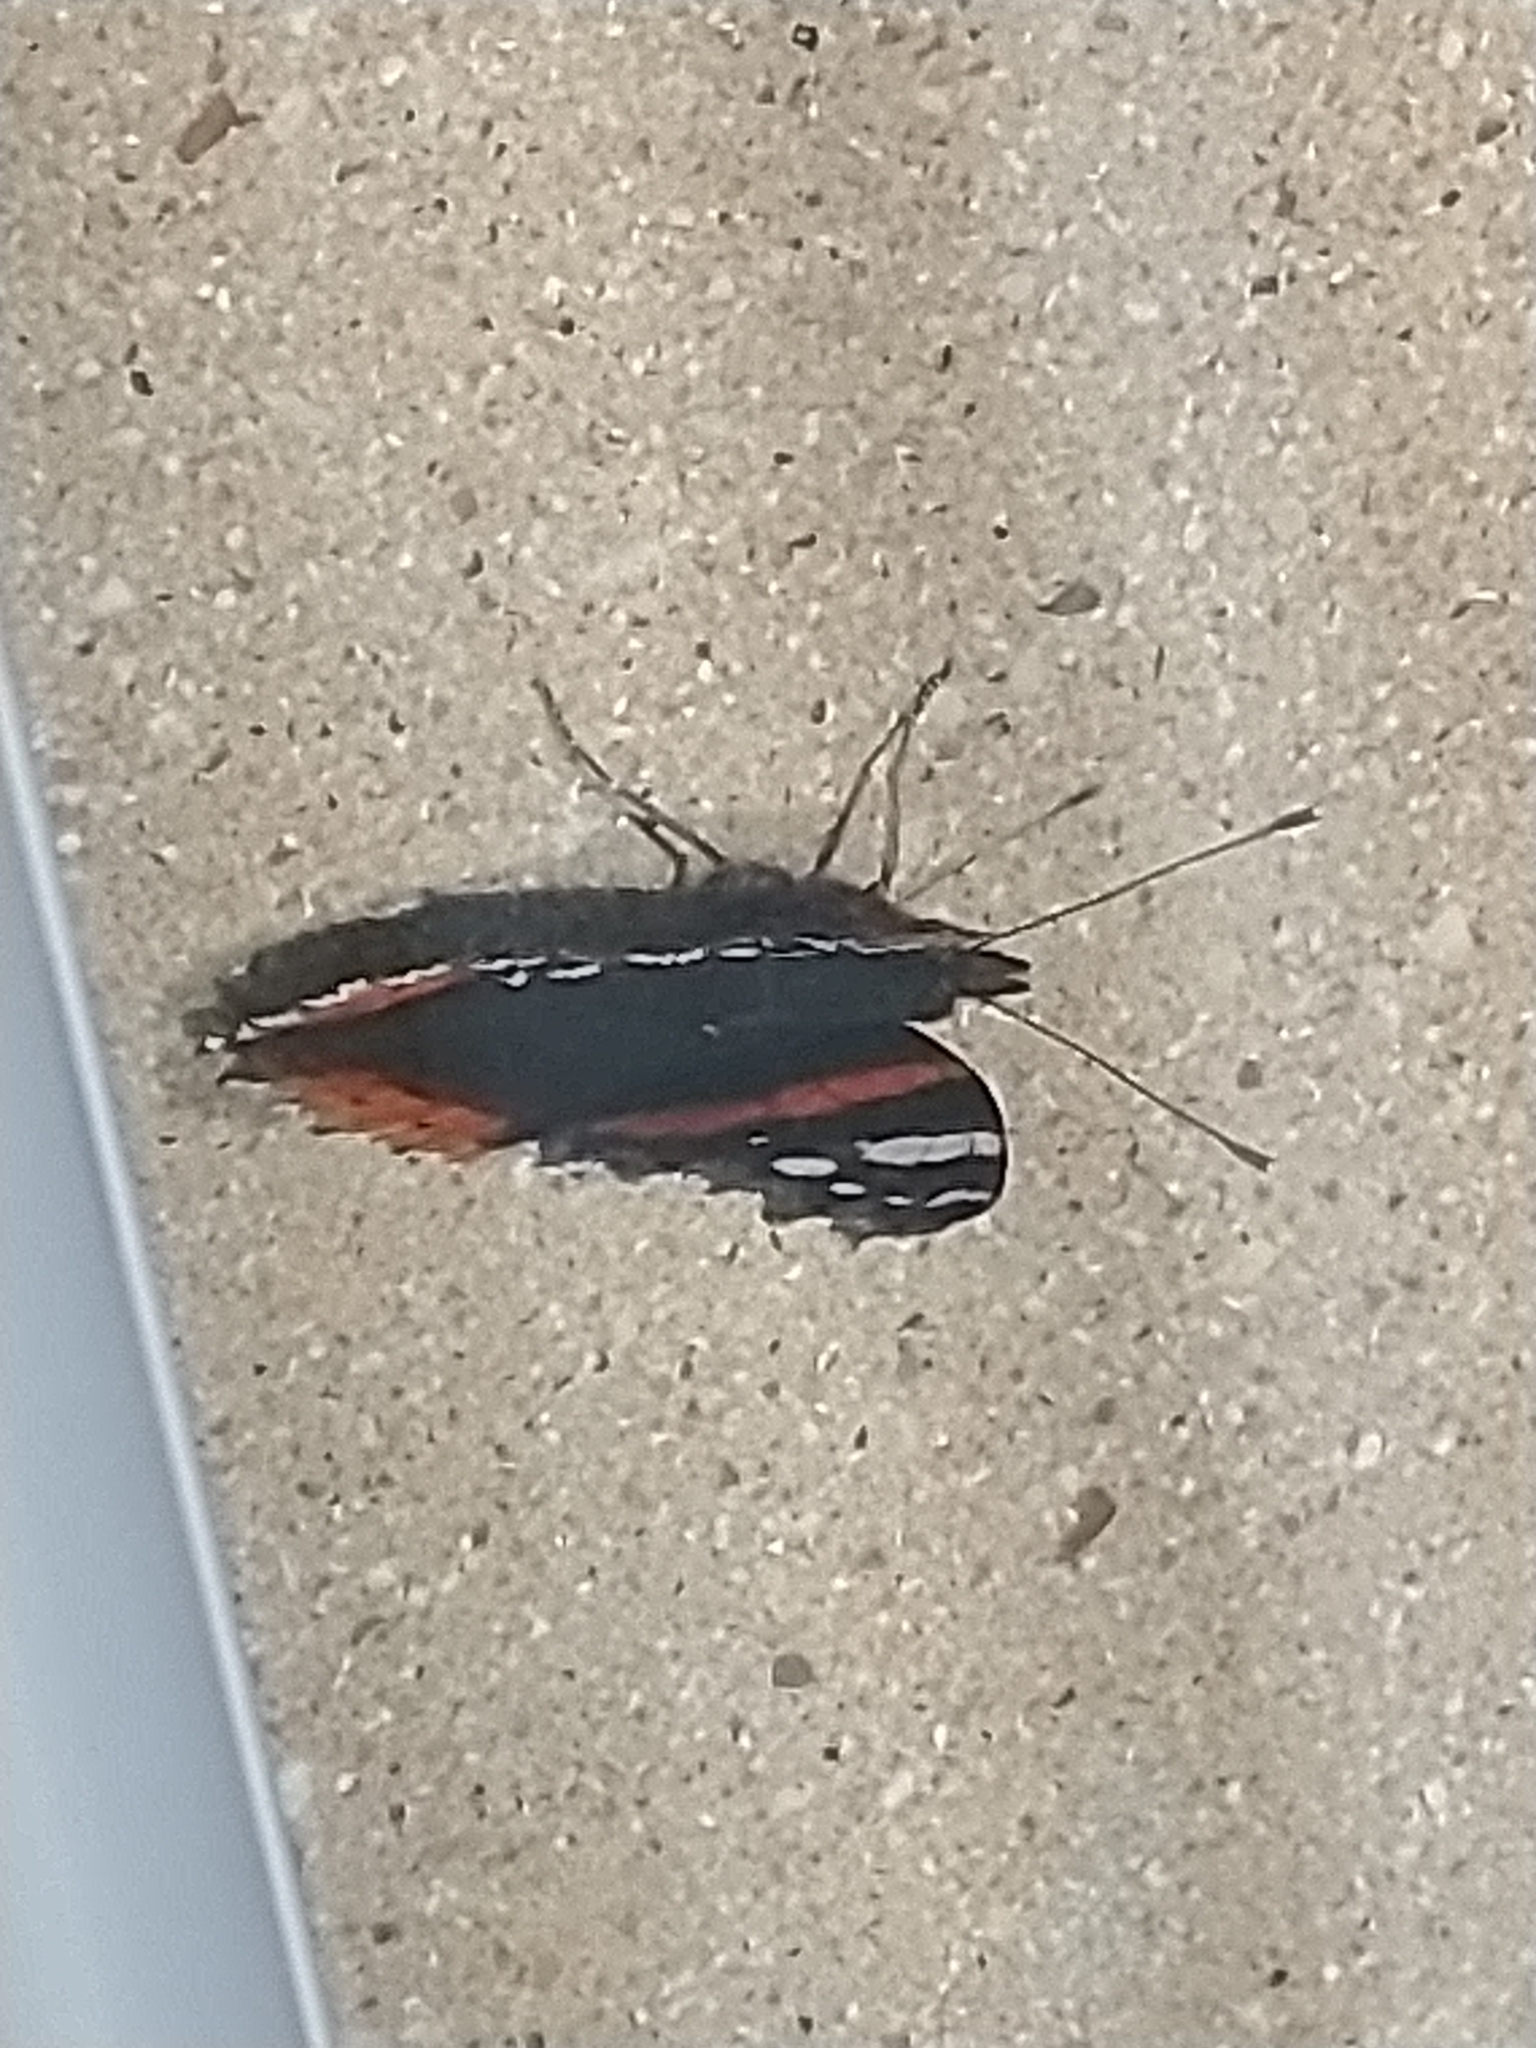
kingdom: Animalia
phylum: Arthropoda
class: Insecta
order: Lepidoptera
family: Nymphalidae
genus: Vanessa
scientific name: Vanessa atalanta
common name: Red admiral
